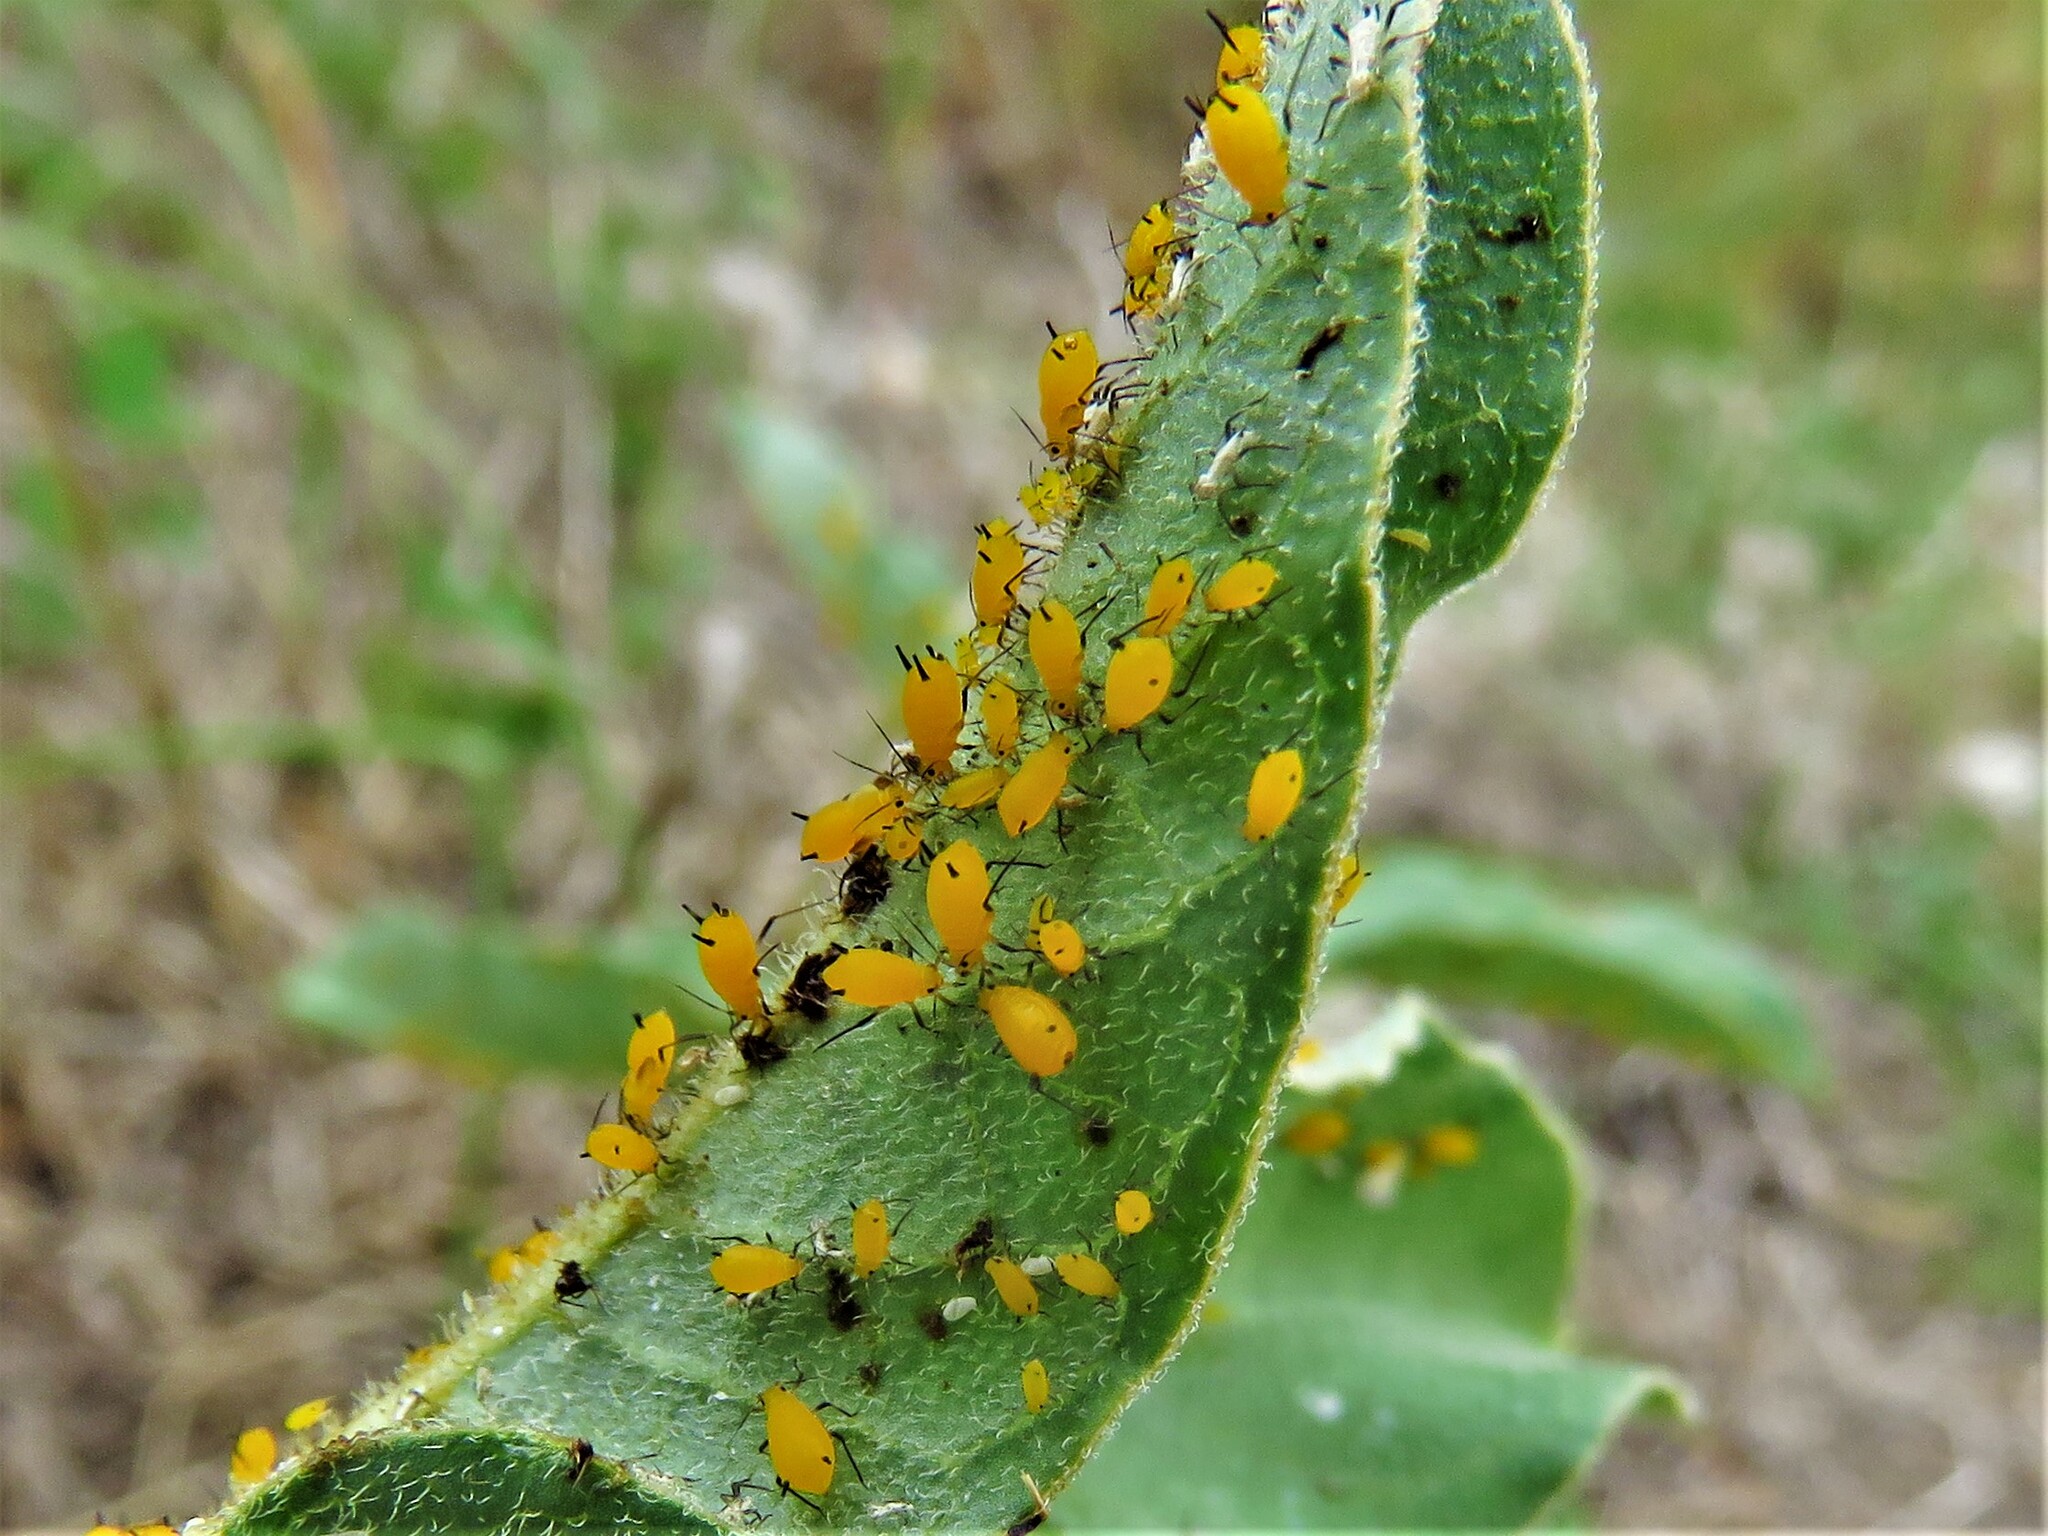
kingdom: Animalia
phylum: Arthropoda
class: Insecta
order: Hemiptera
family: Aphididae
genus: Aphis
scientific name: Aphis nerii
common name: Oleander aphid
